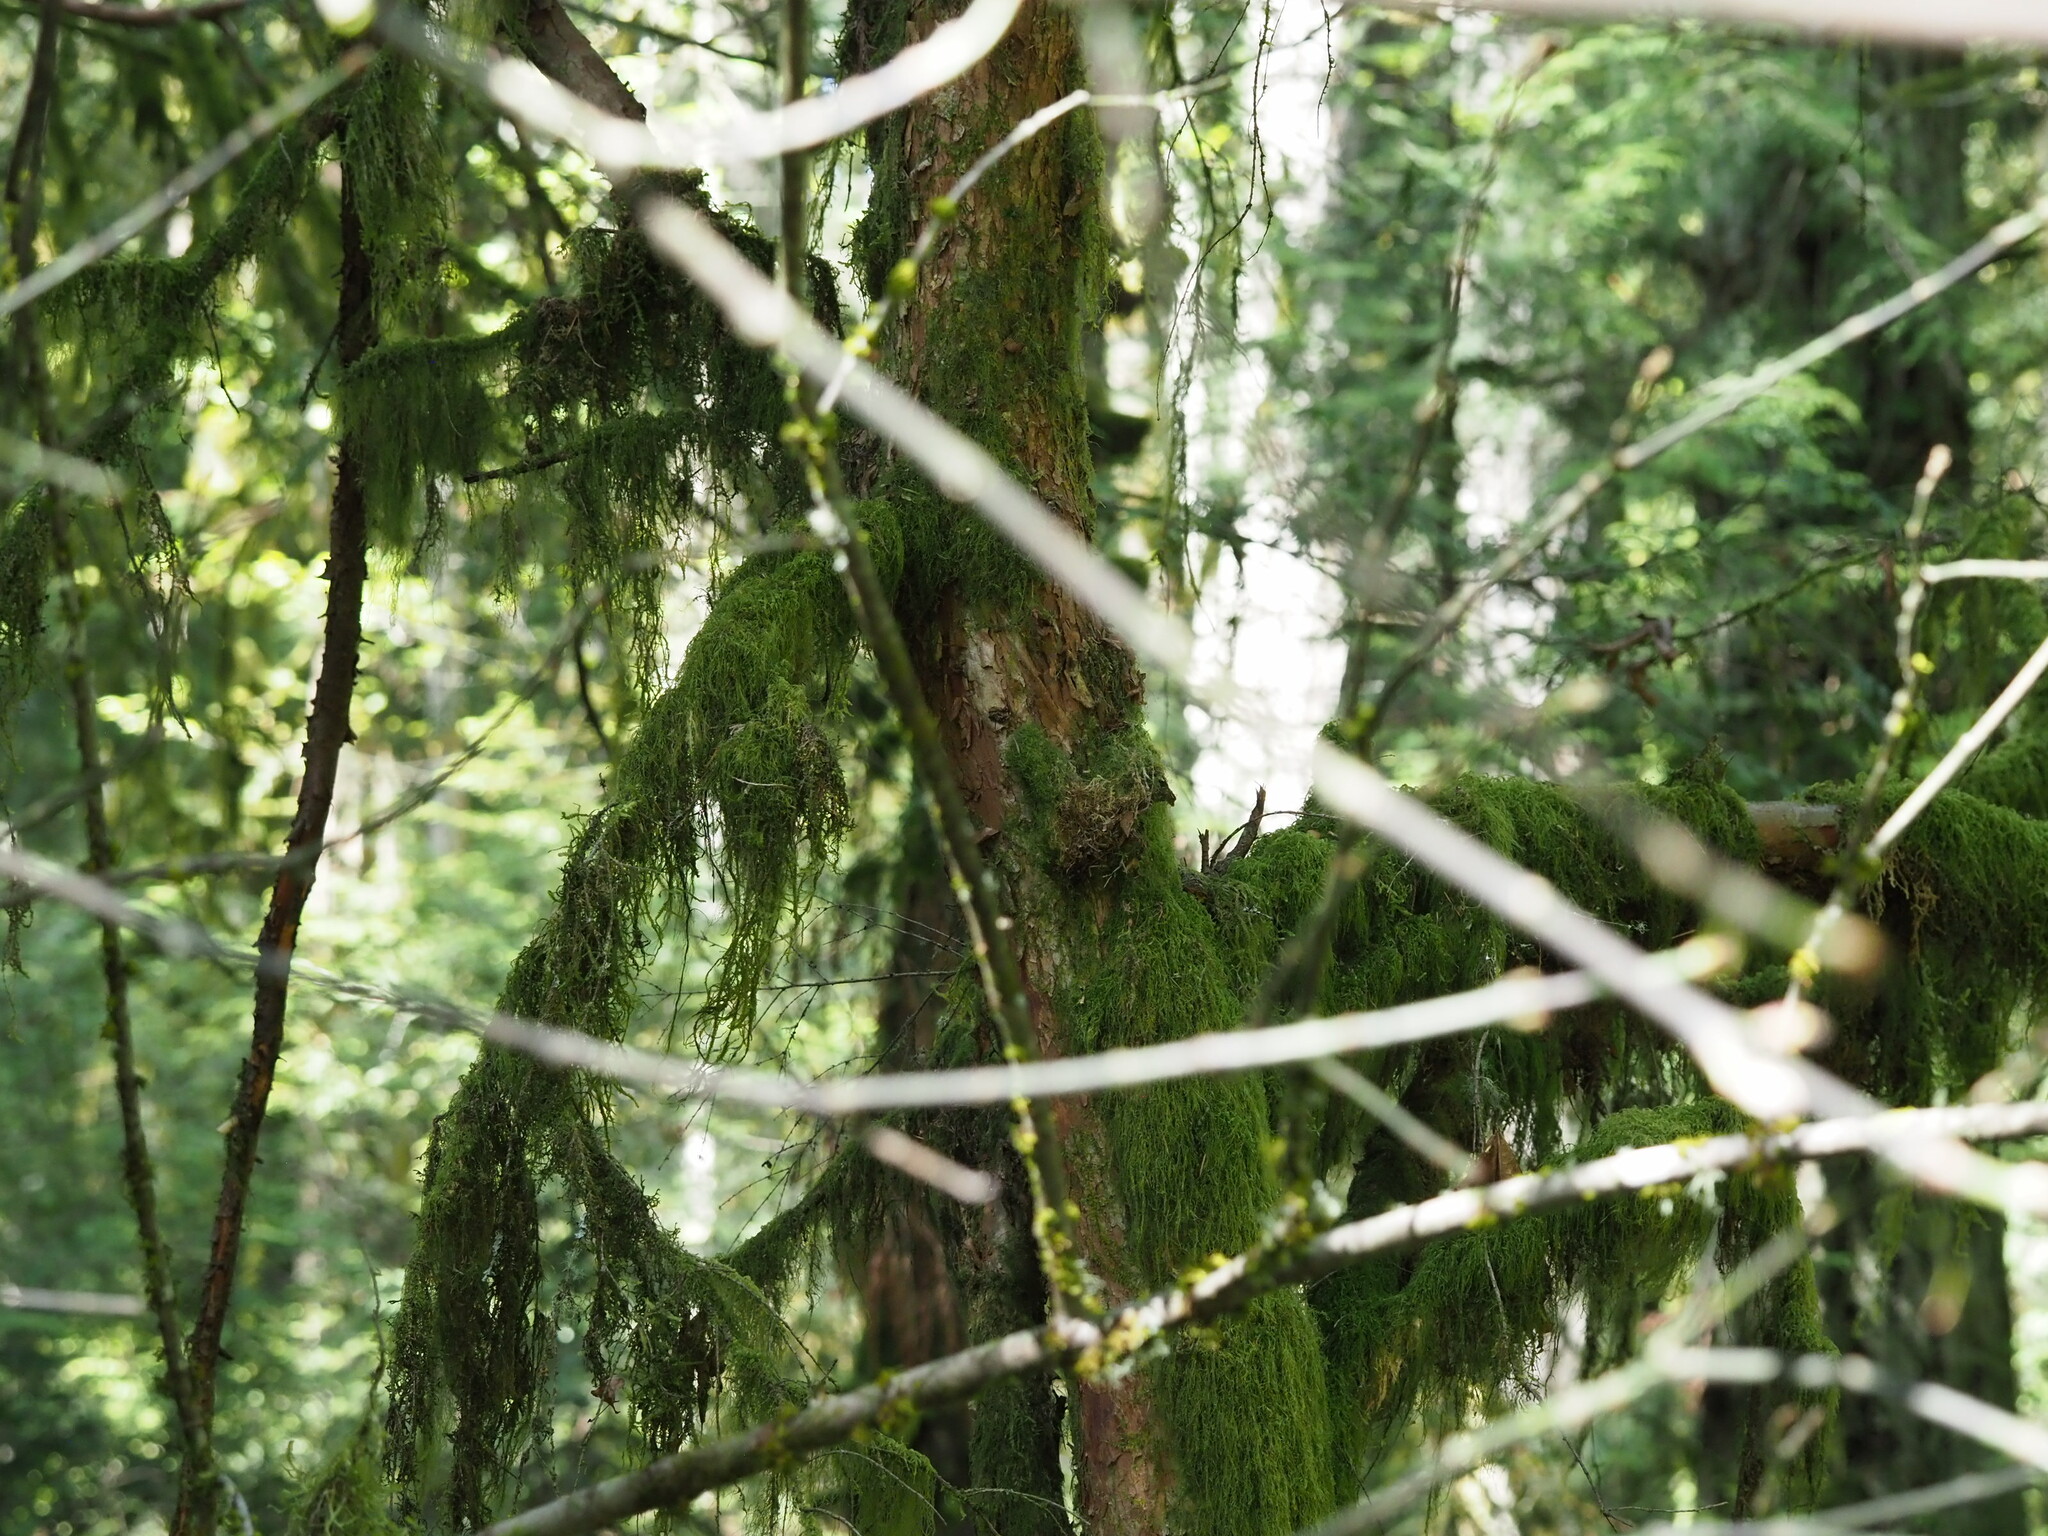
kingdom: Plantae
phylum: Tracheophyta
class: Pinopsida
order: Pinales
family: Taxaceae
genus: Taxus
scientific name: Taxus brevifolia
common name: Pacific yew
